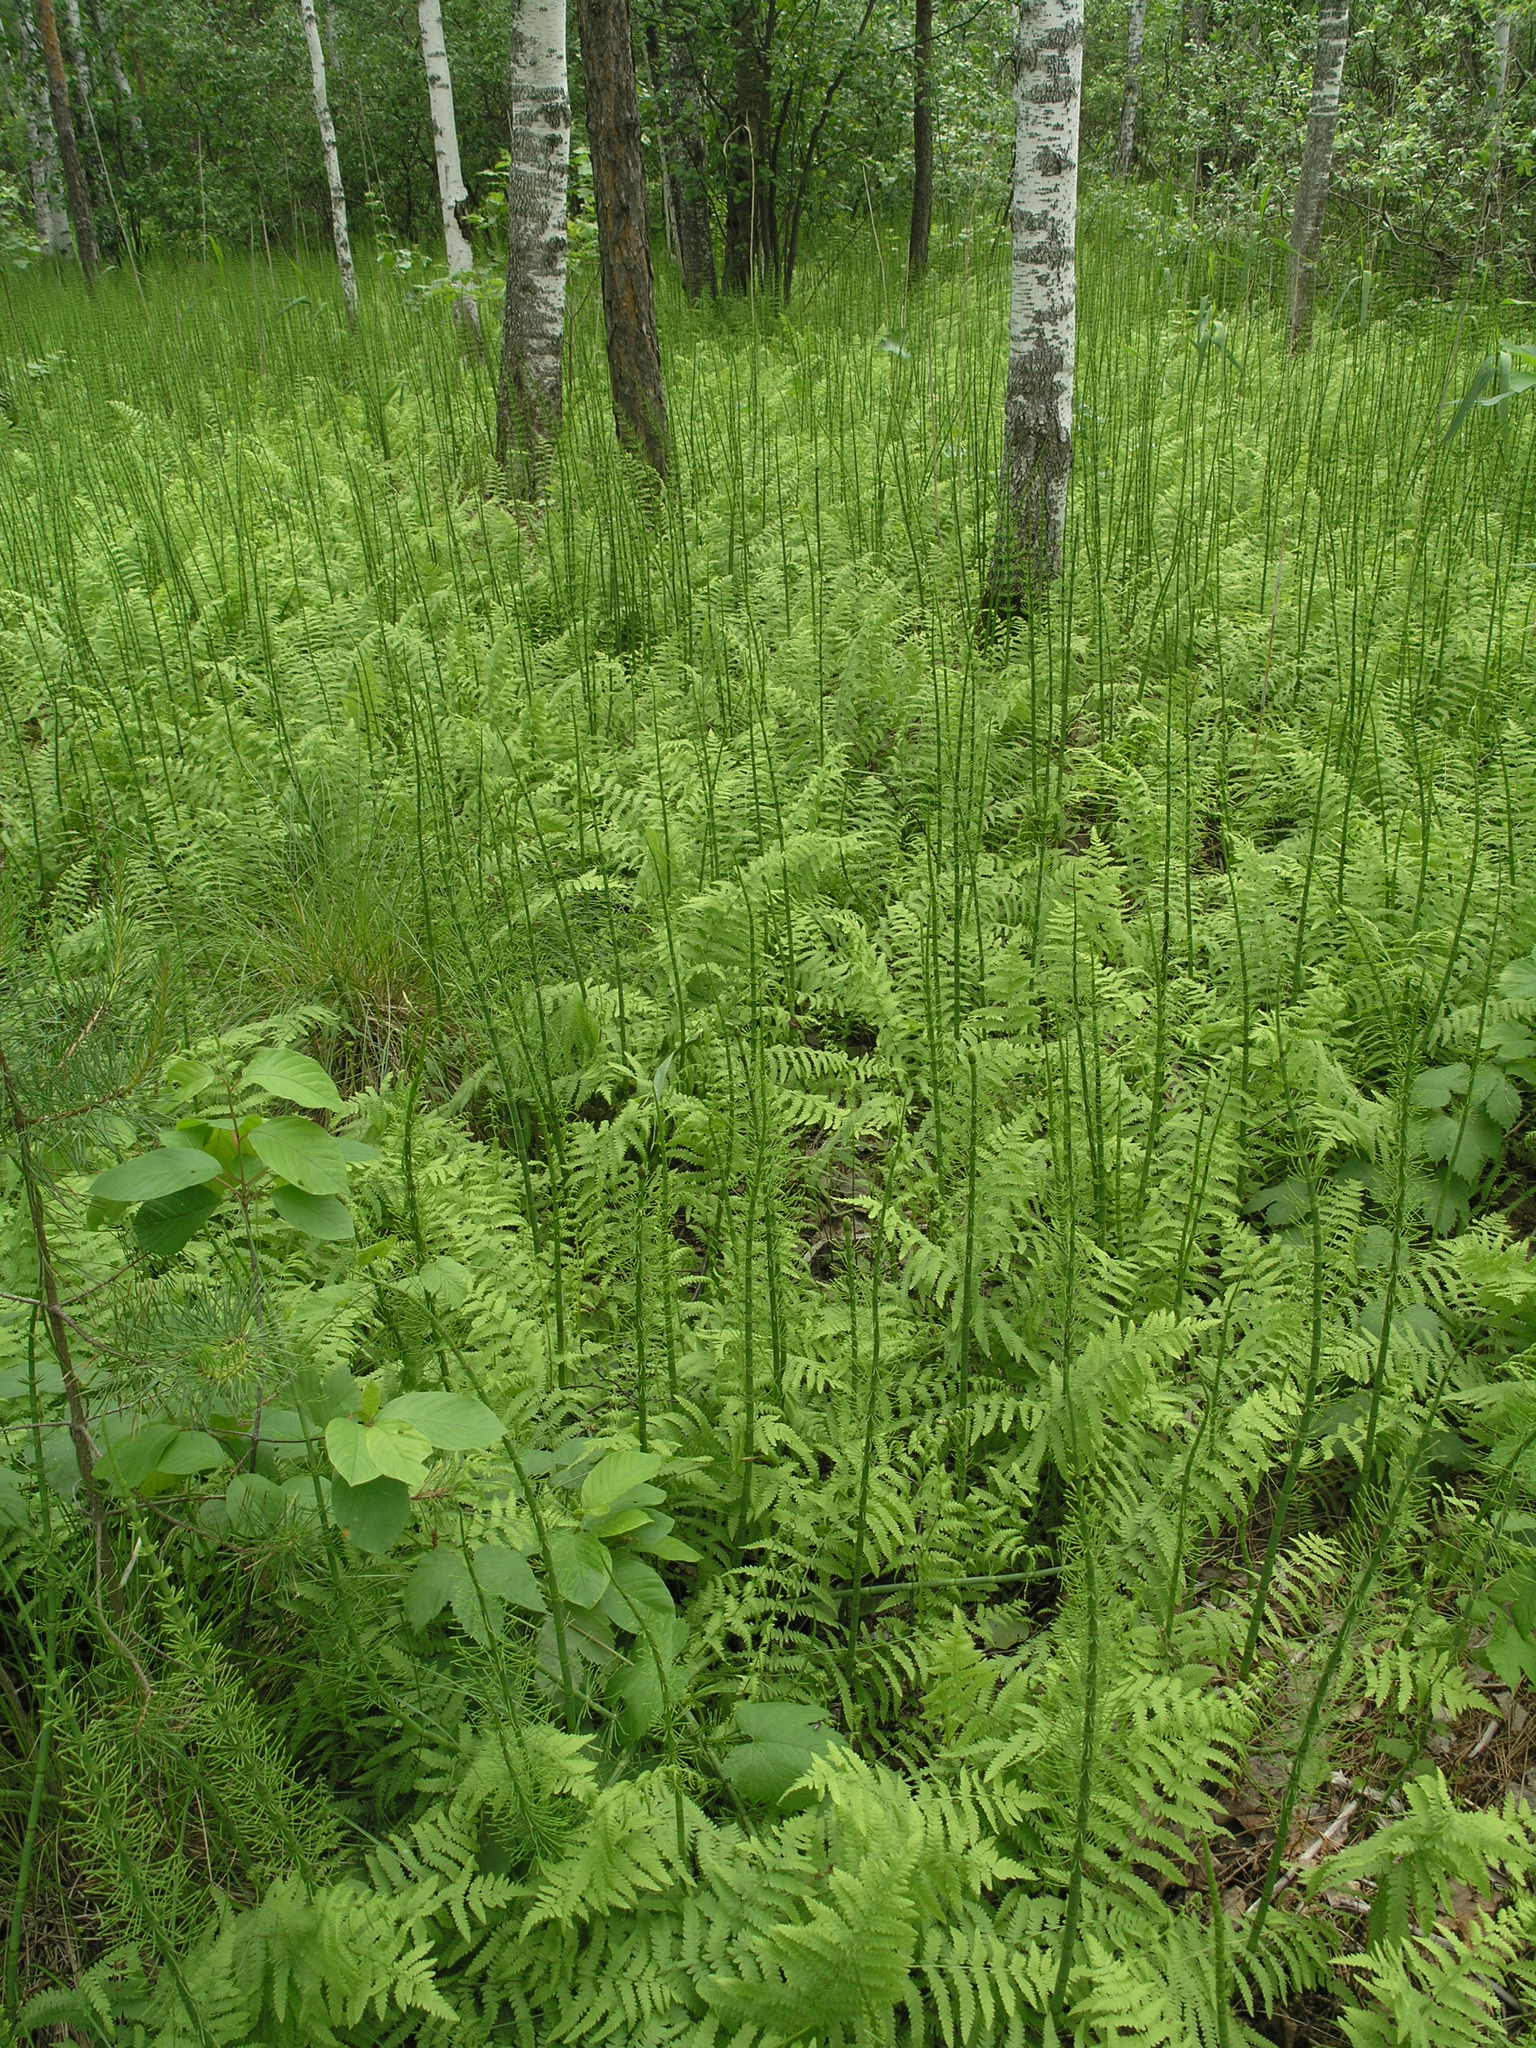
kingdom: Plantae
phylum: Tracheophyta
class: Polypodiopsida
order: Equisetales
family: Equisetaceae
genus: Equisetum
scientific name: Equisetum fluviatile
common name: Water horsetail
